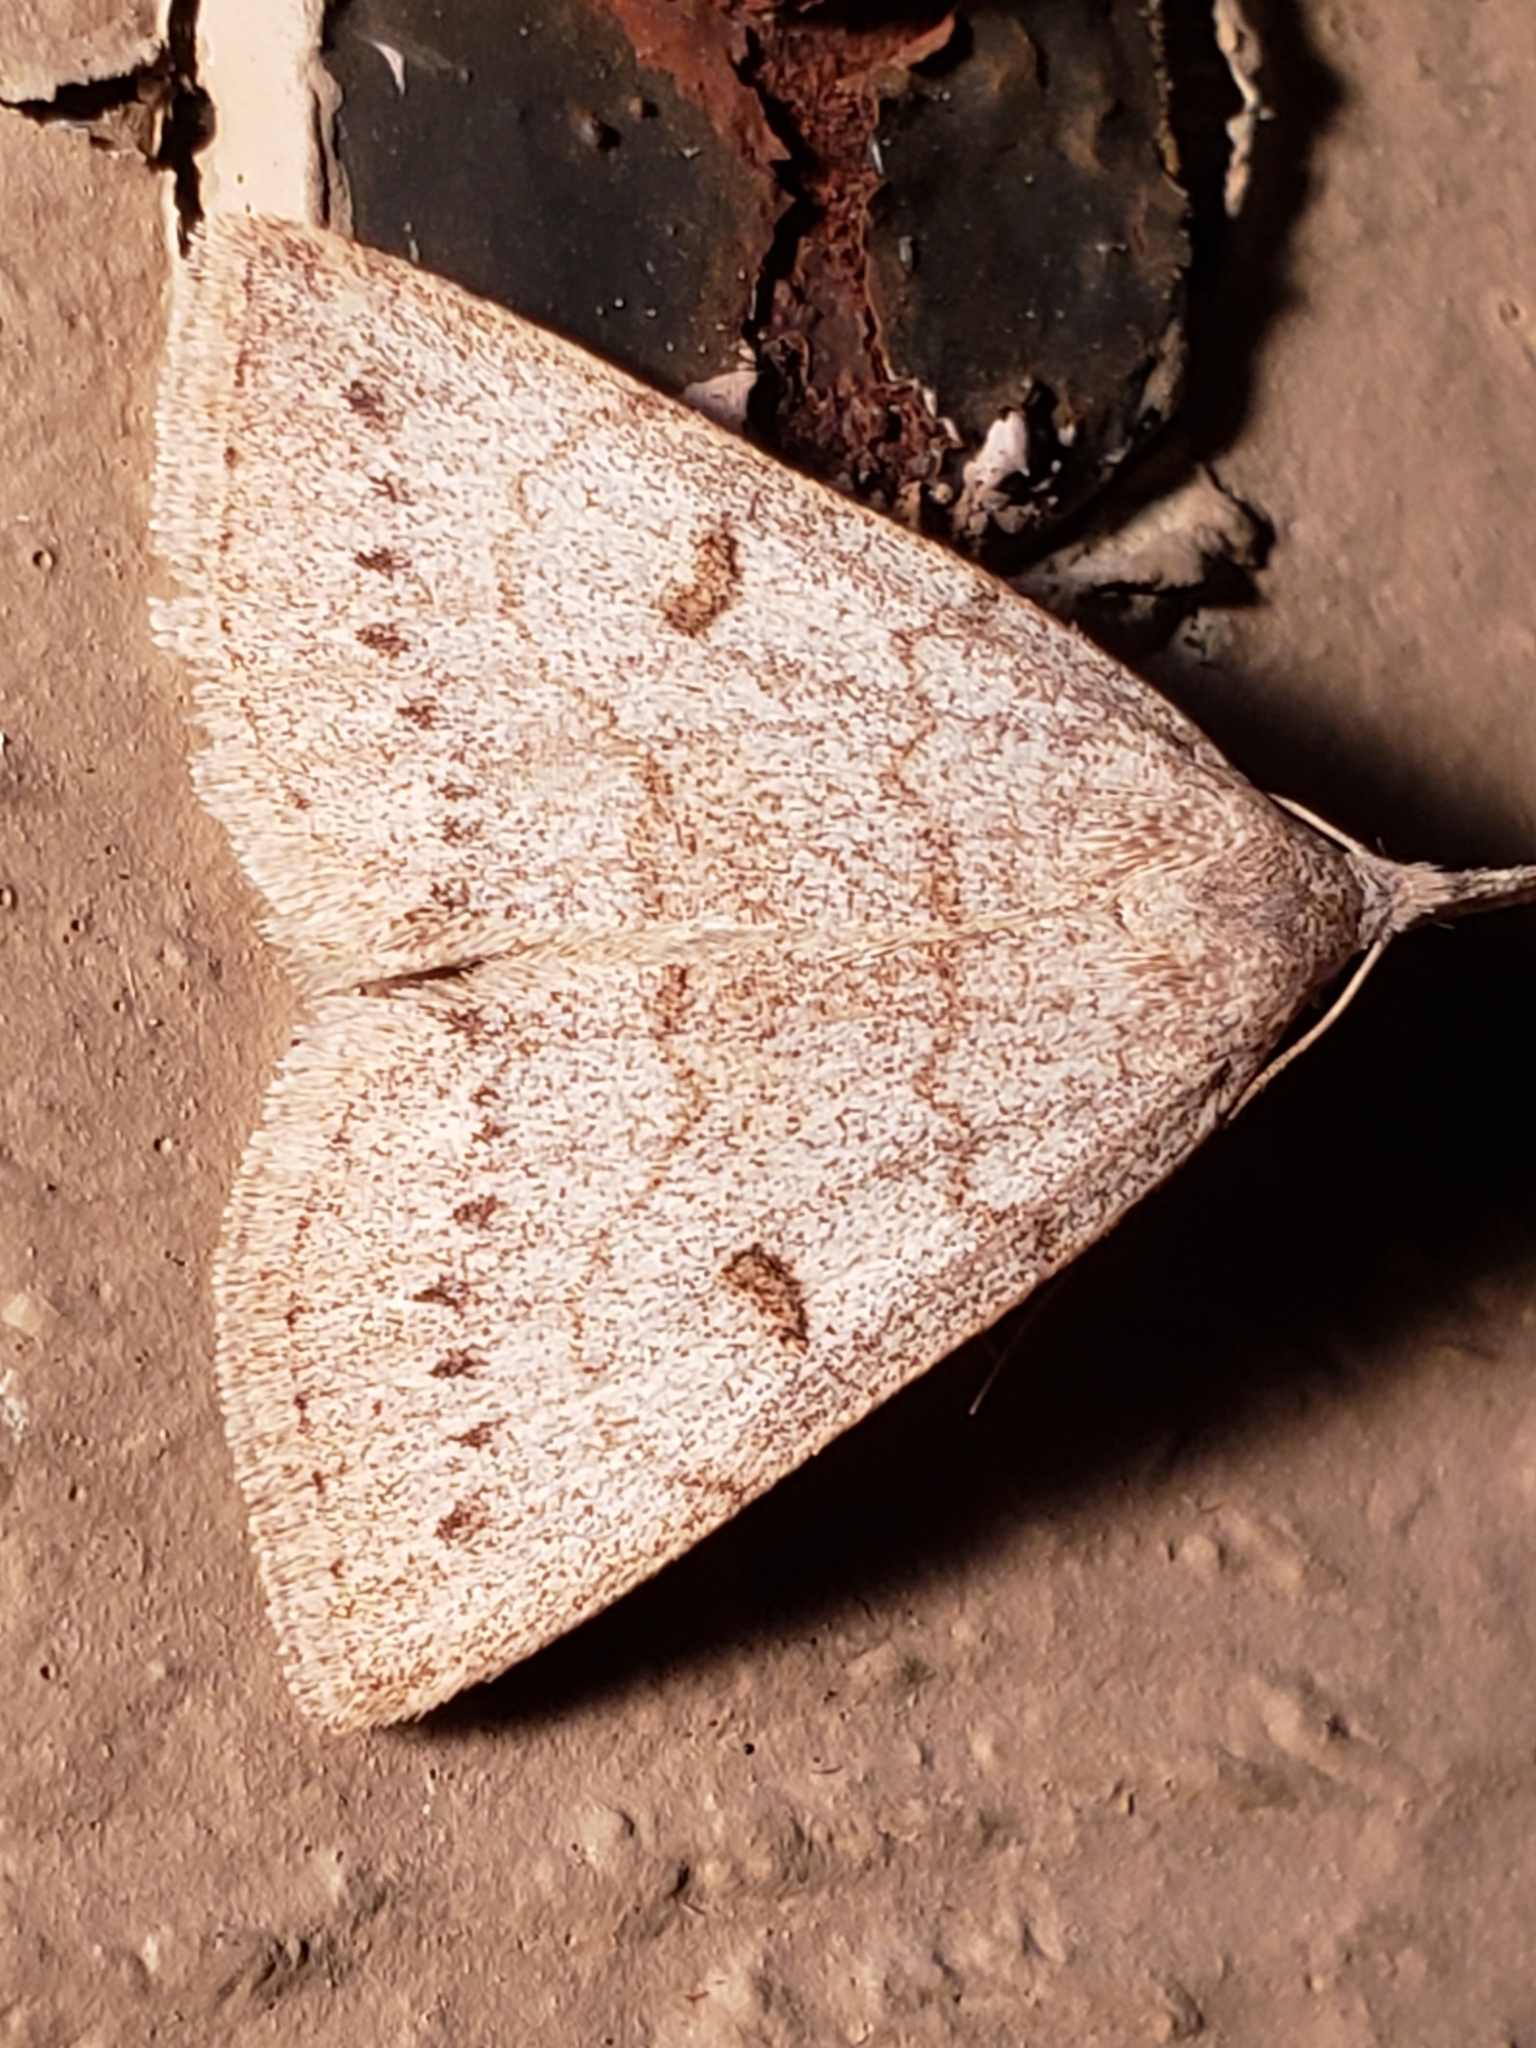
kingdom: Animalia
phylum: Arthropoda
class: Insecta
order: Lepidoptera
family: Erebidae
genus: Macrochilo
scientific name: Macrochilo morbidalis
